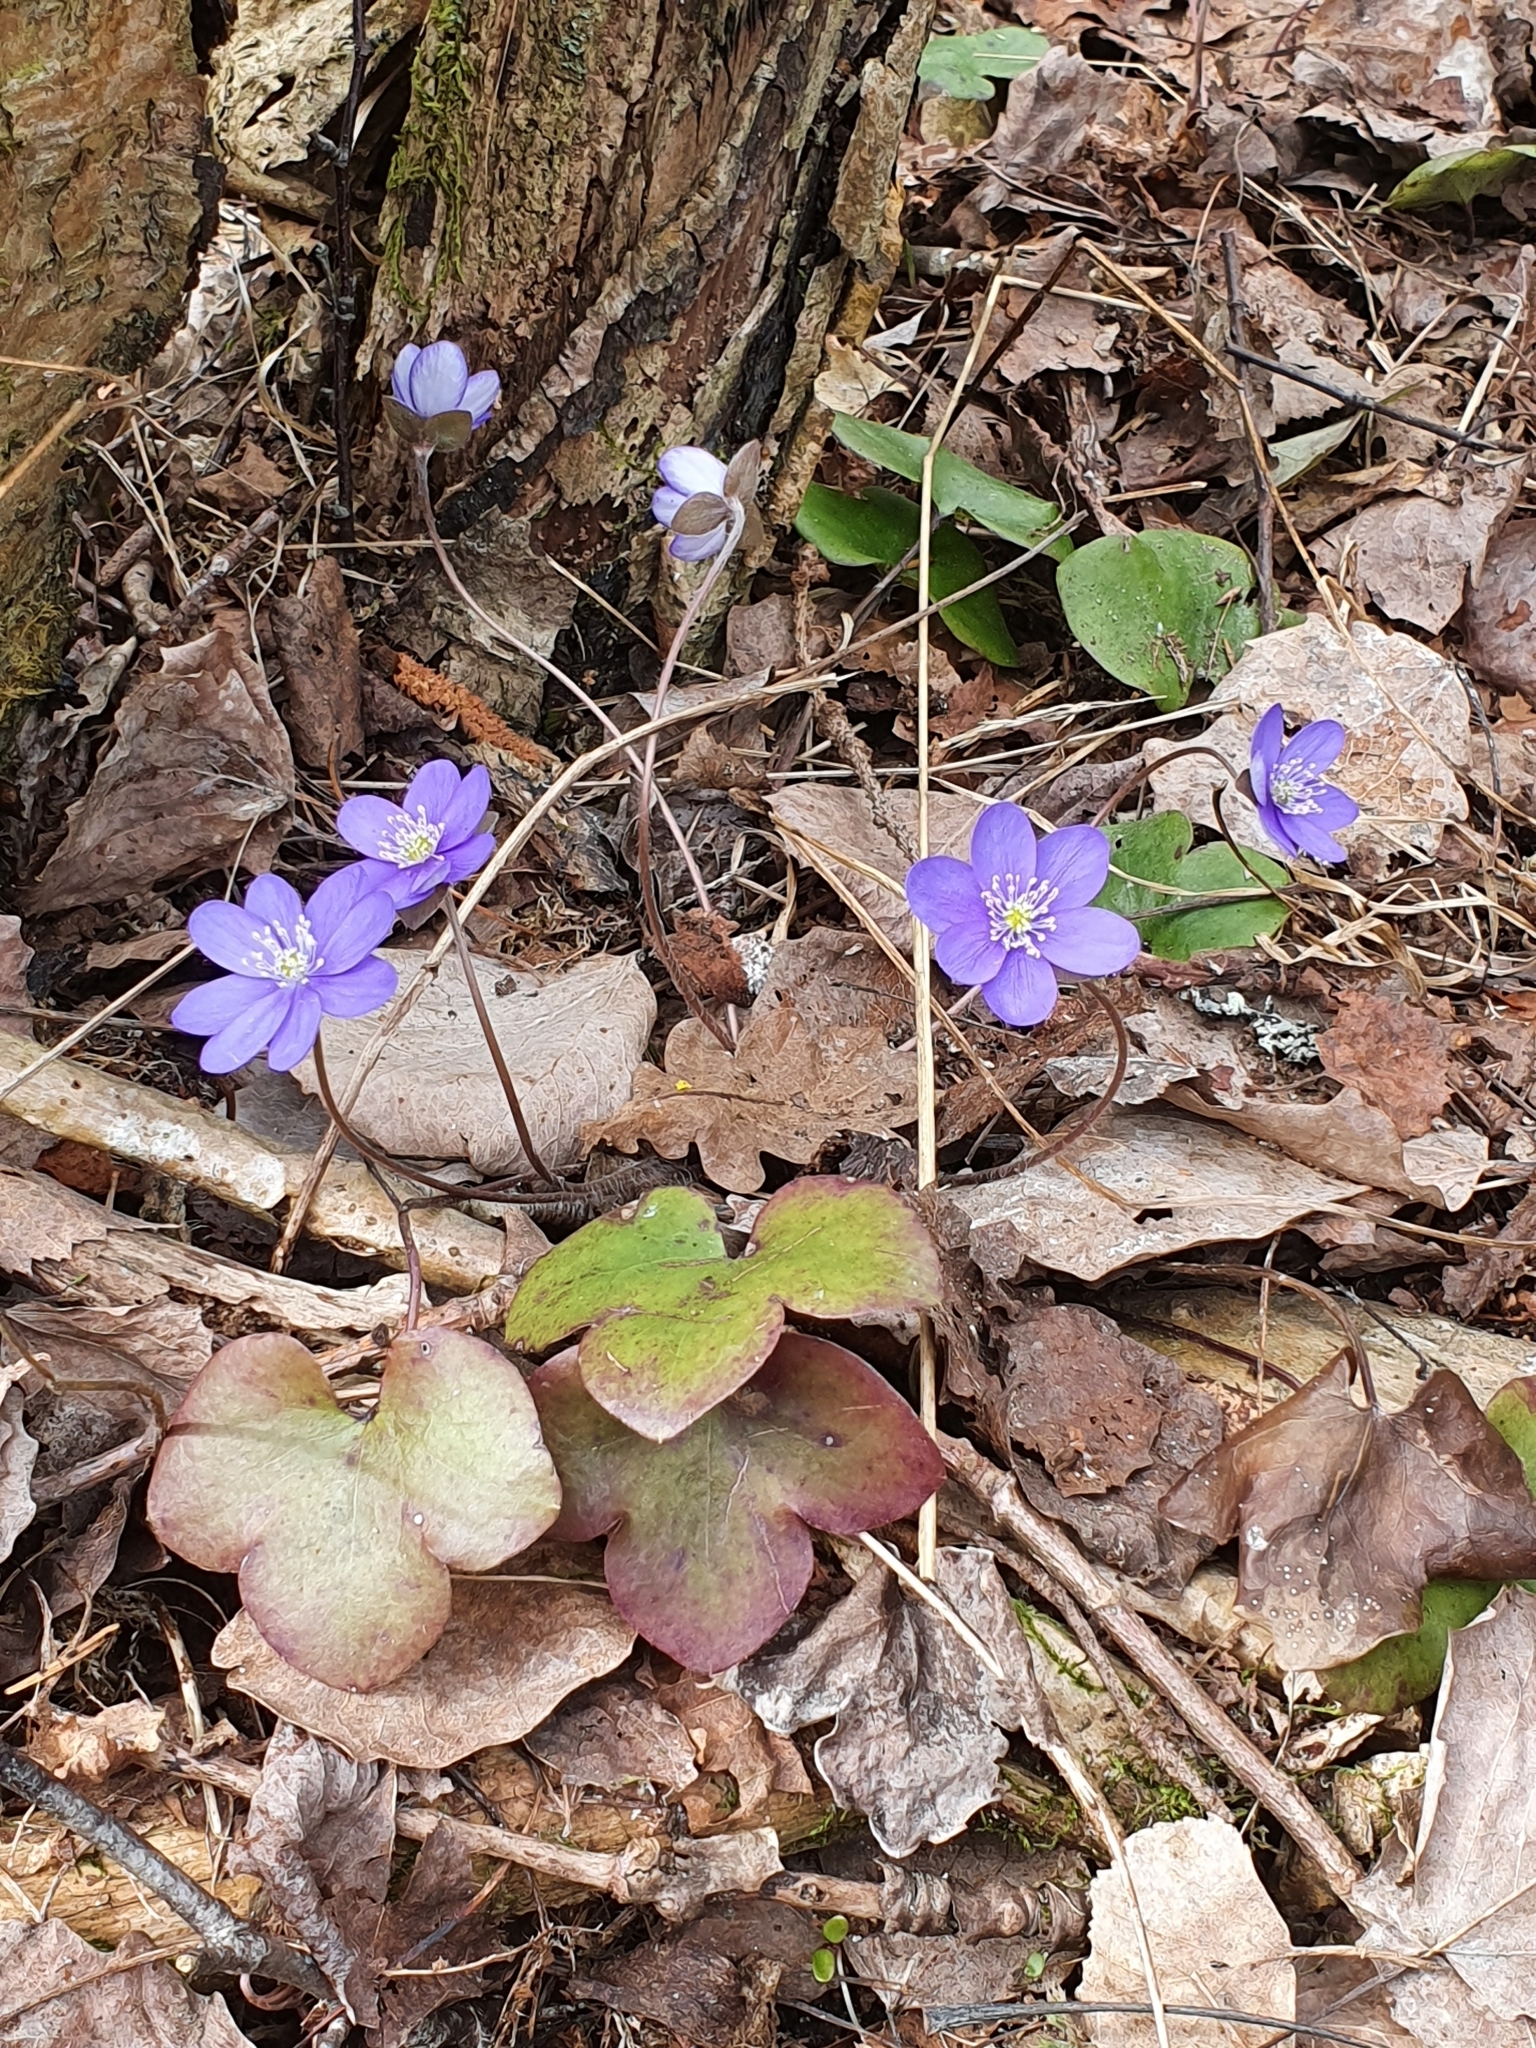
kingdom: Plantae
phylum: Tracheophyta
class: Magnoliopsida
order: Ranunculales
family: Ranunculaceae
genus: Hepatica
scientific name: Hepatica nobilis
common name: Liverleaf
